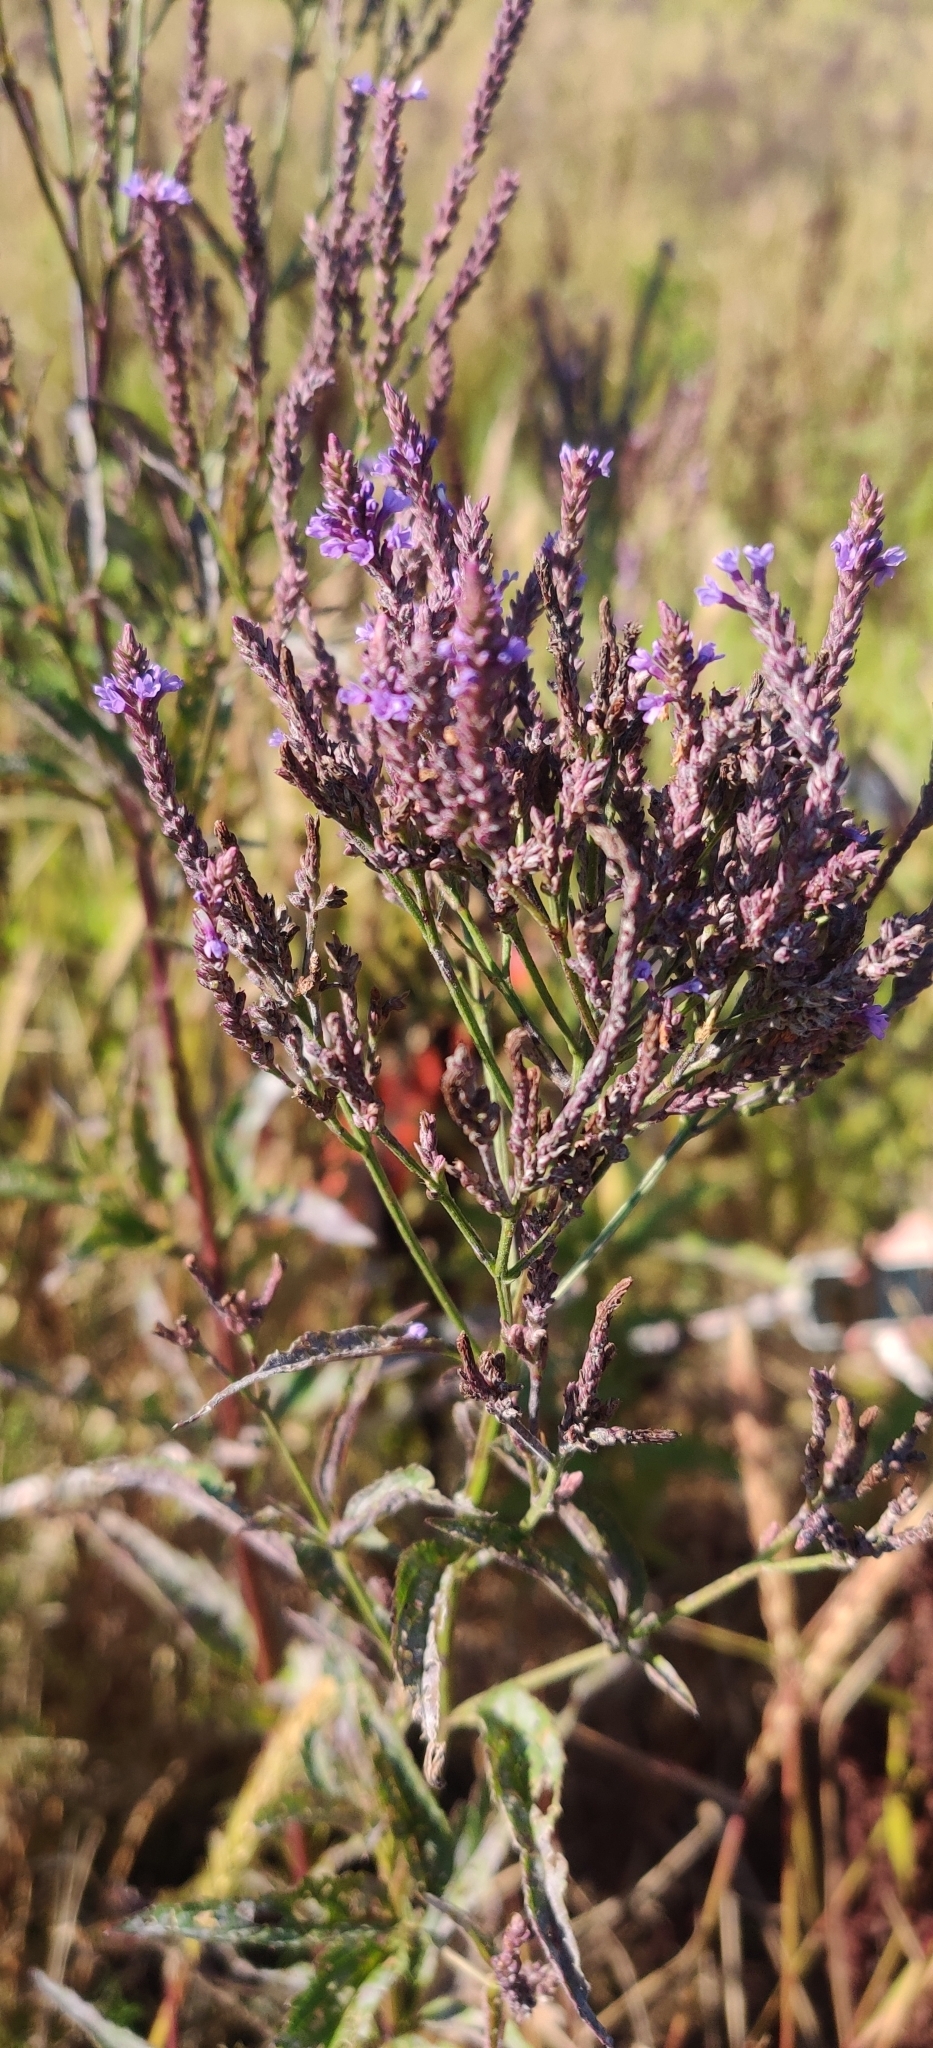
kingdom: Plantae
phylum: Tracheophyta
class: Magnoliopsida
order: Lamiales
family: Verbenaceae
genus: Verbena
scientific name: Verbena hastata
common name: American blue vervain
